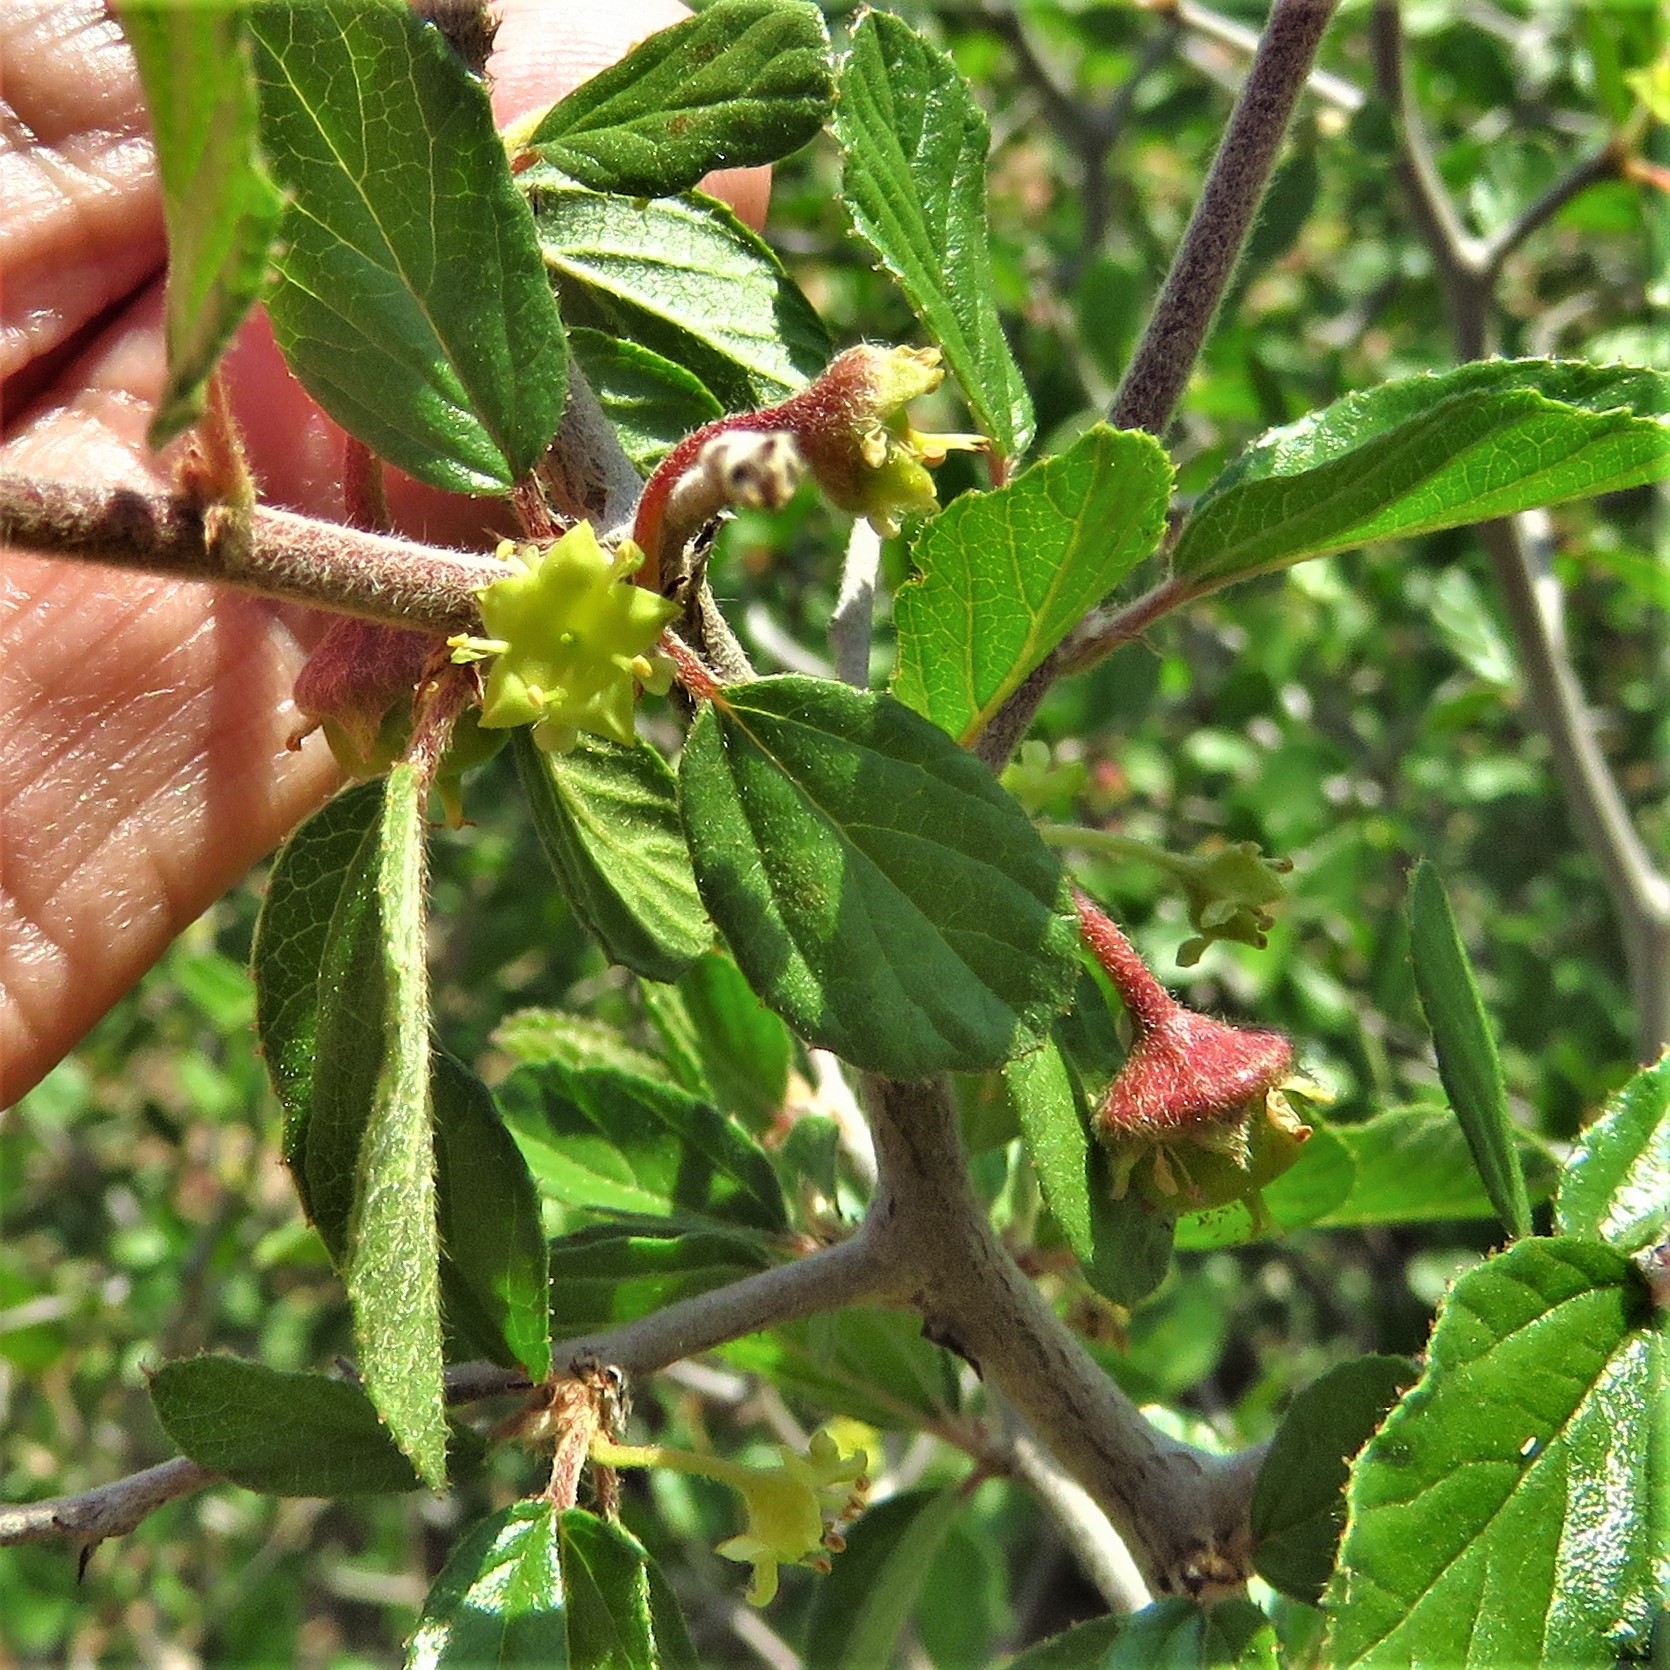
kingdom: Plantae
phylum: Tracheophyta
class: Magnoliopsida
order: Rosales
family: Rhamnaceae
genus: Colubrina
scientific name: Colubrina texensis
